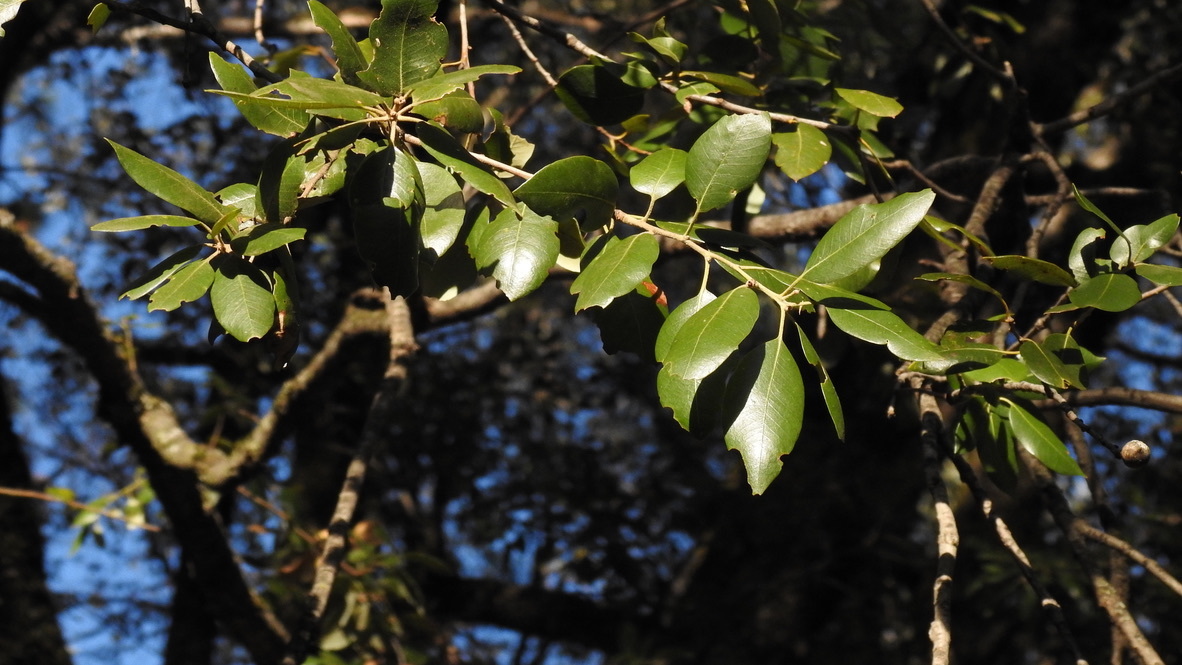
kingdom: Plantae
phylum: Tracheophyta
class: Magnoliopsida
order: Fagales
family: Fagaceae
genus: Quercus
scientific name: Quercus chrysolepis
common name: Canyon live oak
